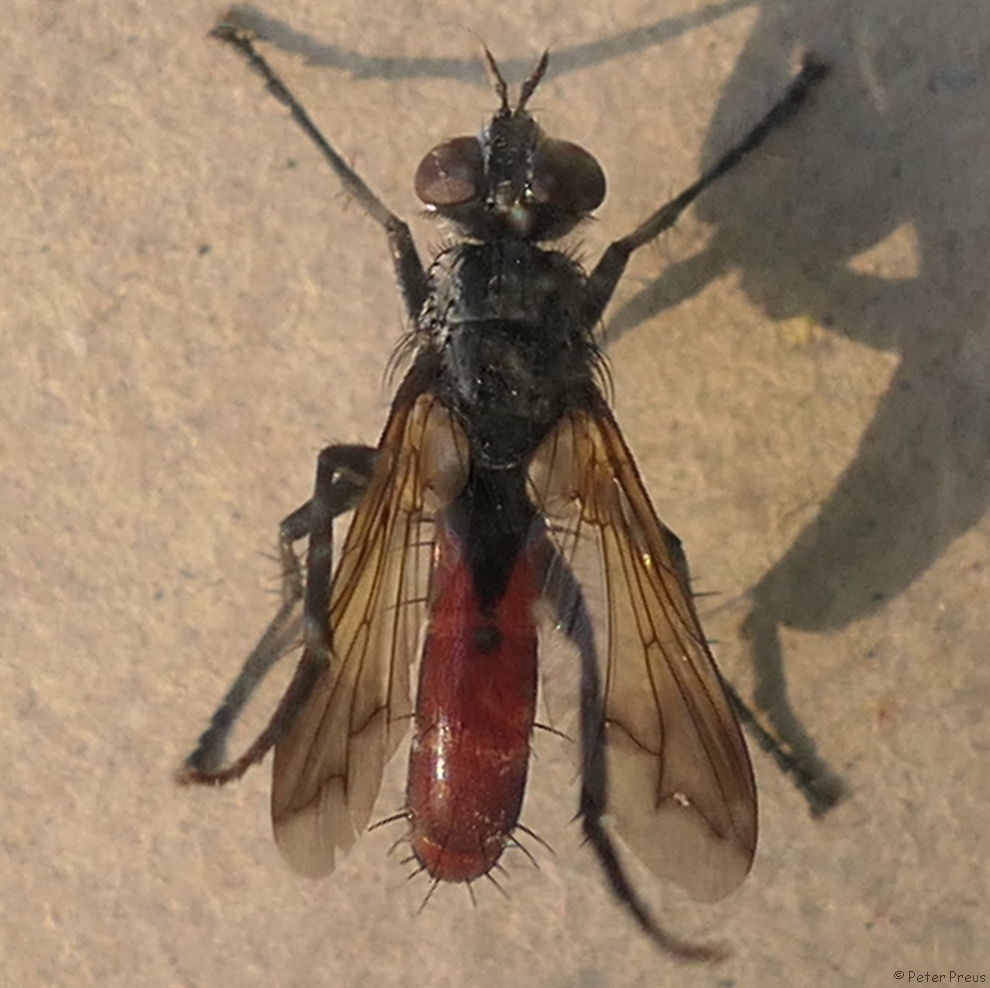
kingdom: Animalia
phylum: Arthropoda
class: Insecta
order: Diptera
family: Tachinidae
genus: Cylindromyia
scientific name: Cylindromyia bicolor
